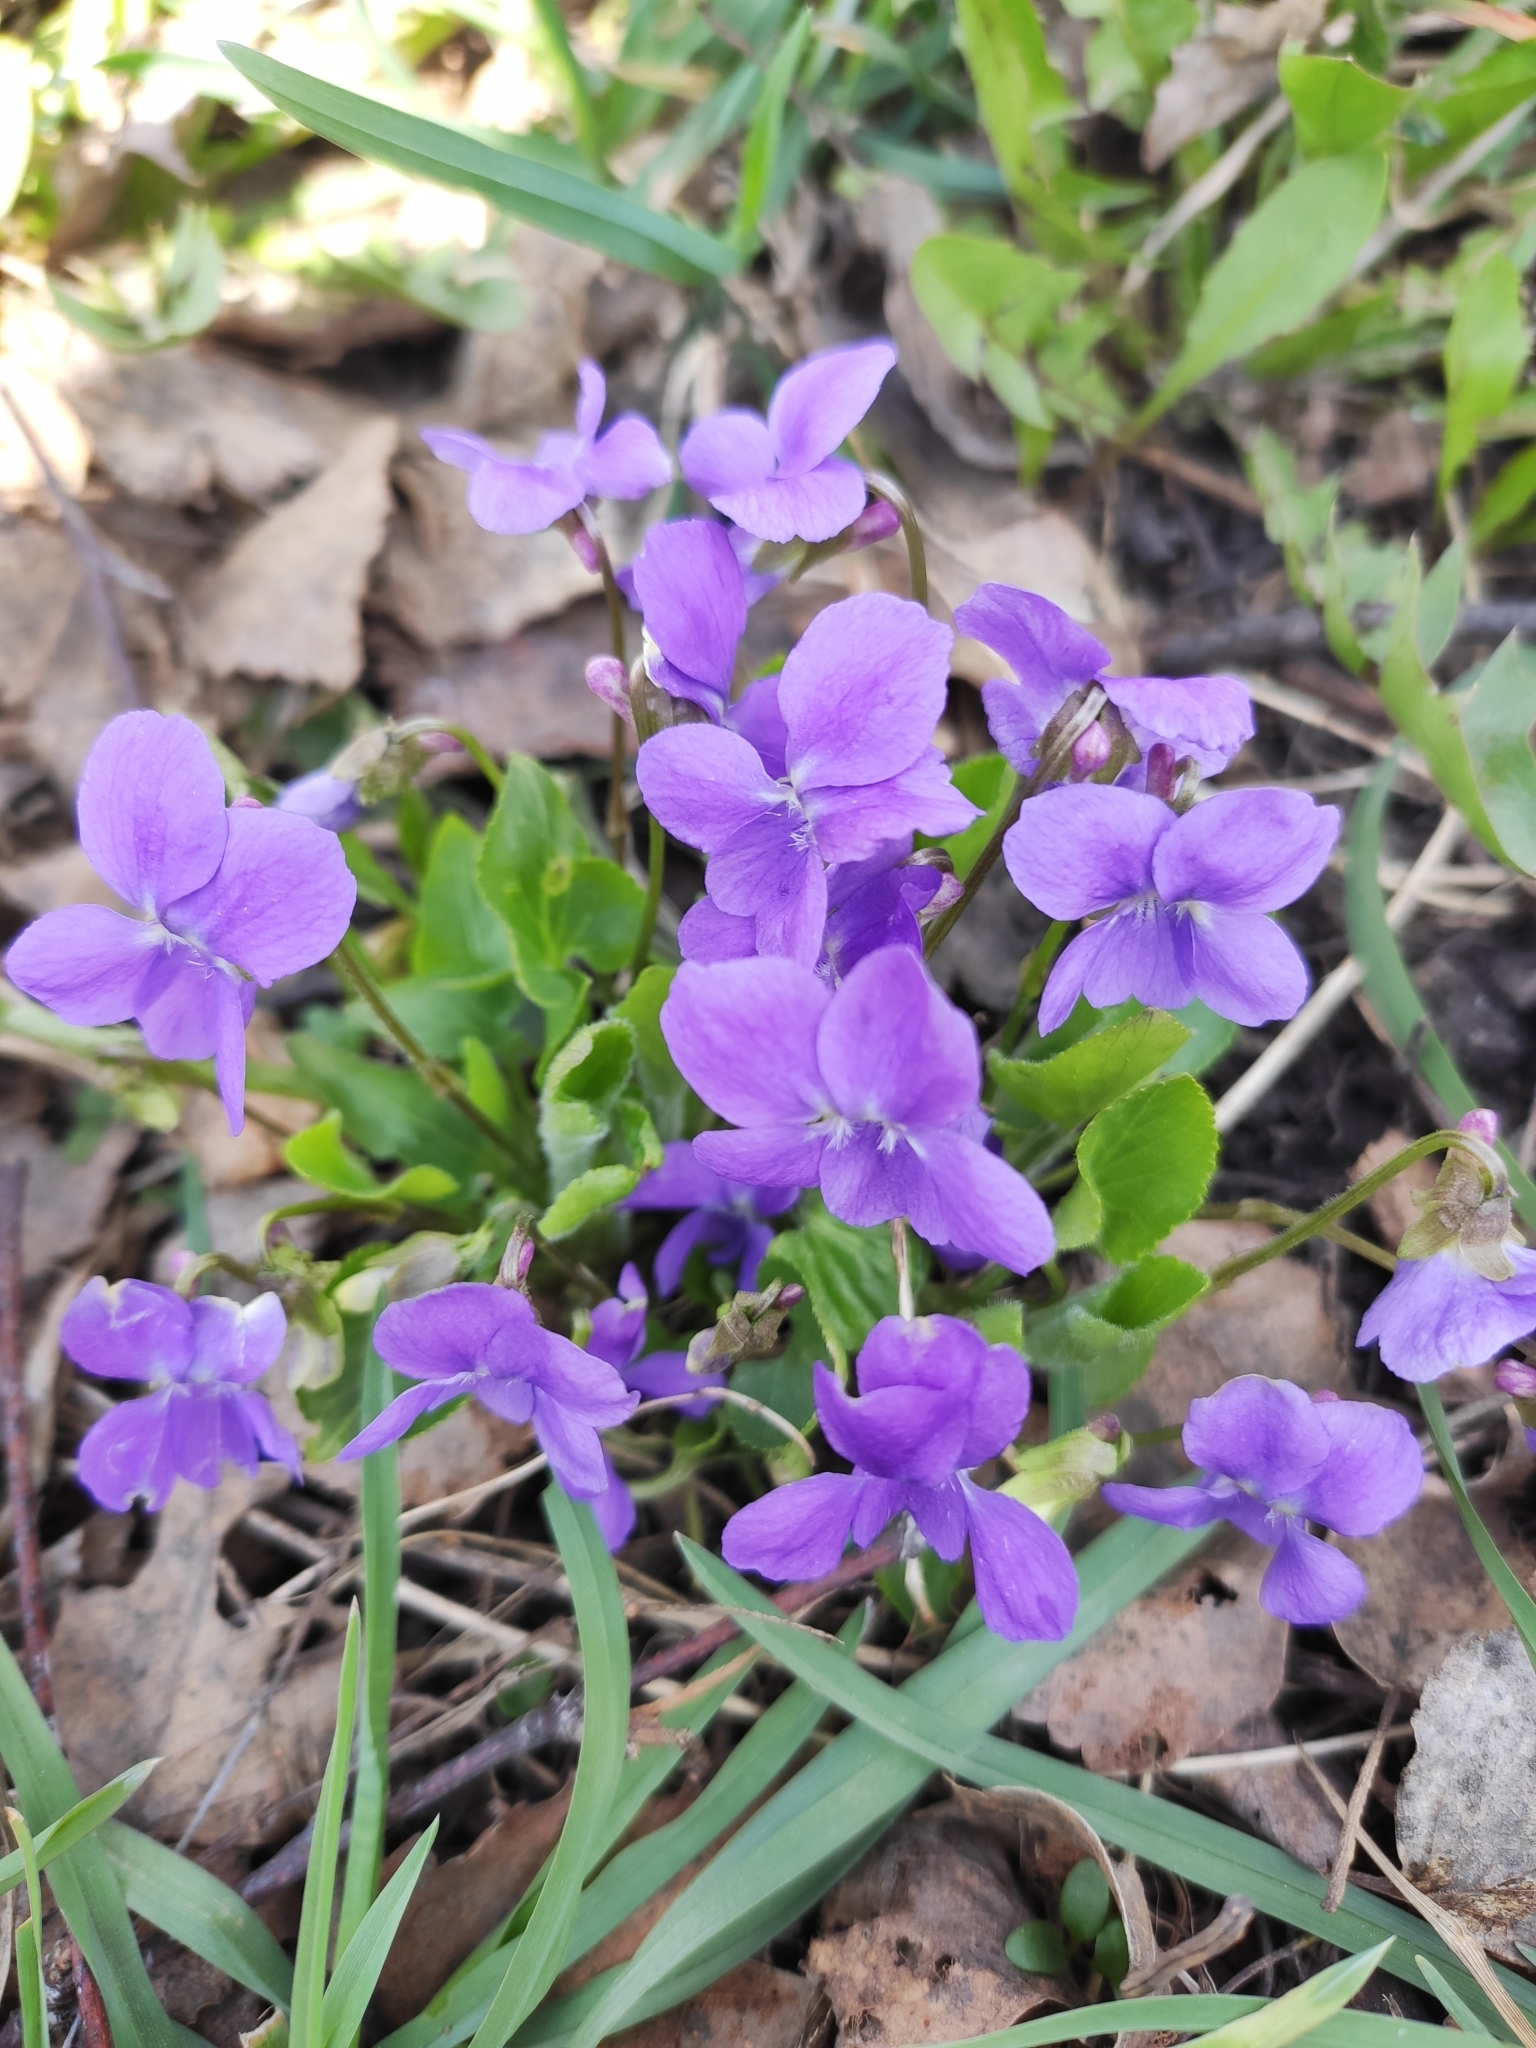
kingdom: Plantae
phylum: Tracheophyta
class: Magnoliopsida
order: Malpighiales
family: Violaceae
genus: Viola
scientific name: Viola hirta
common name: Hairy violet
